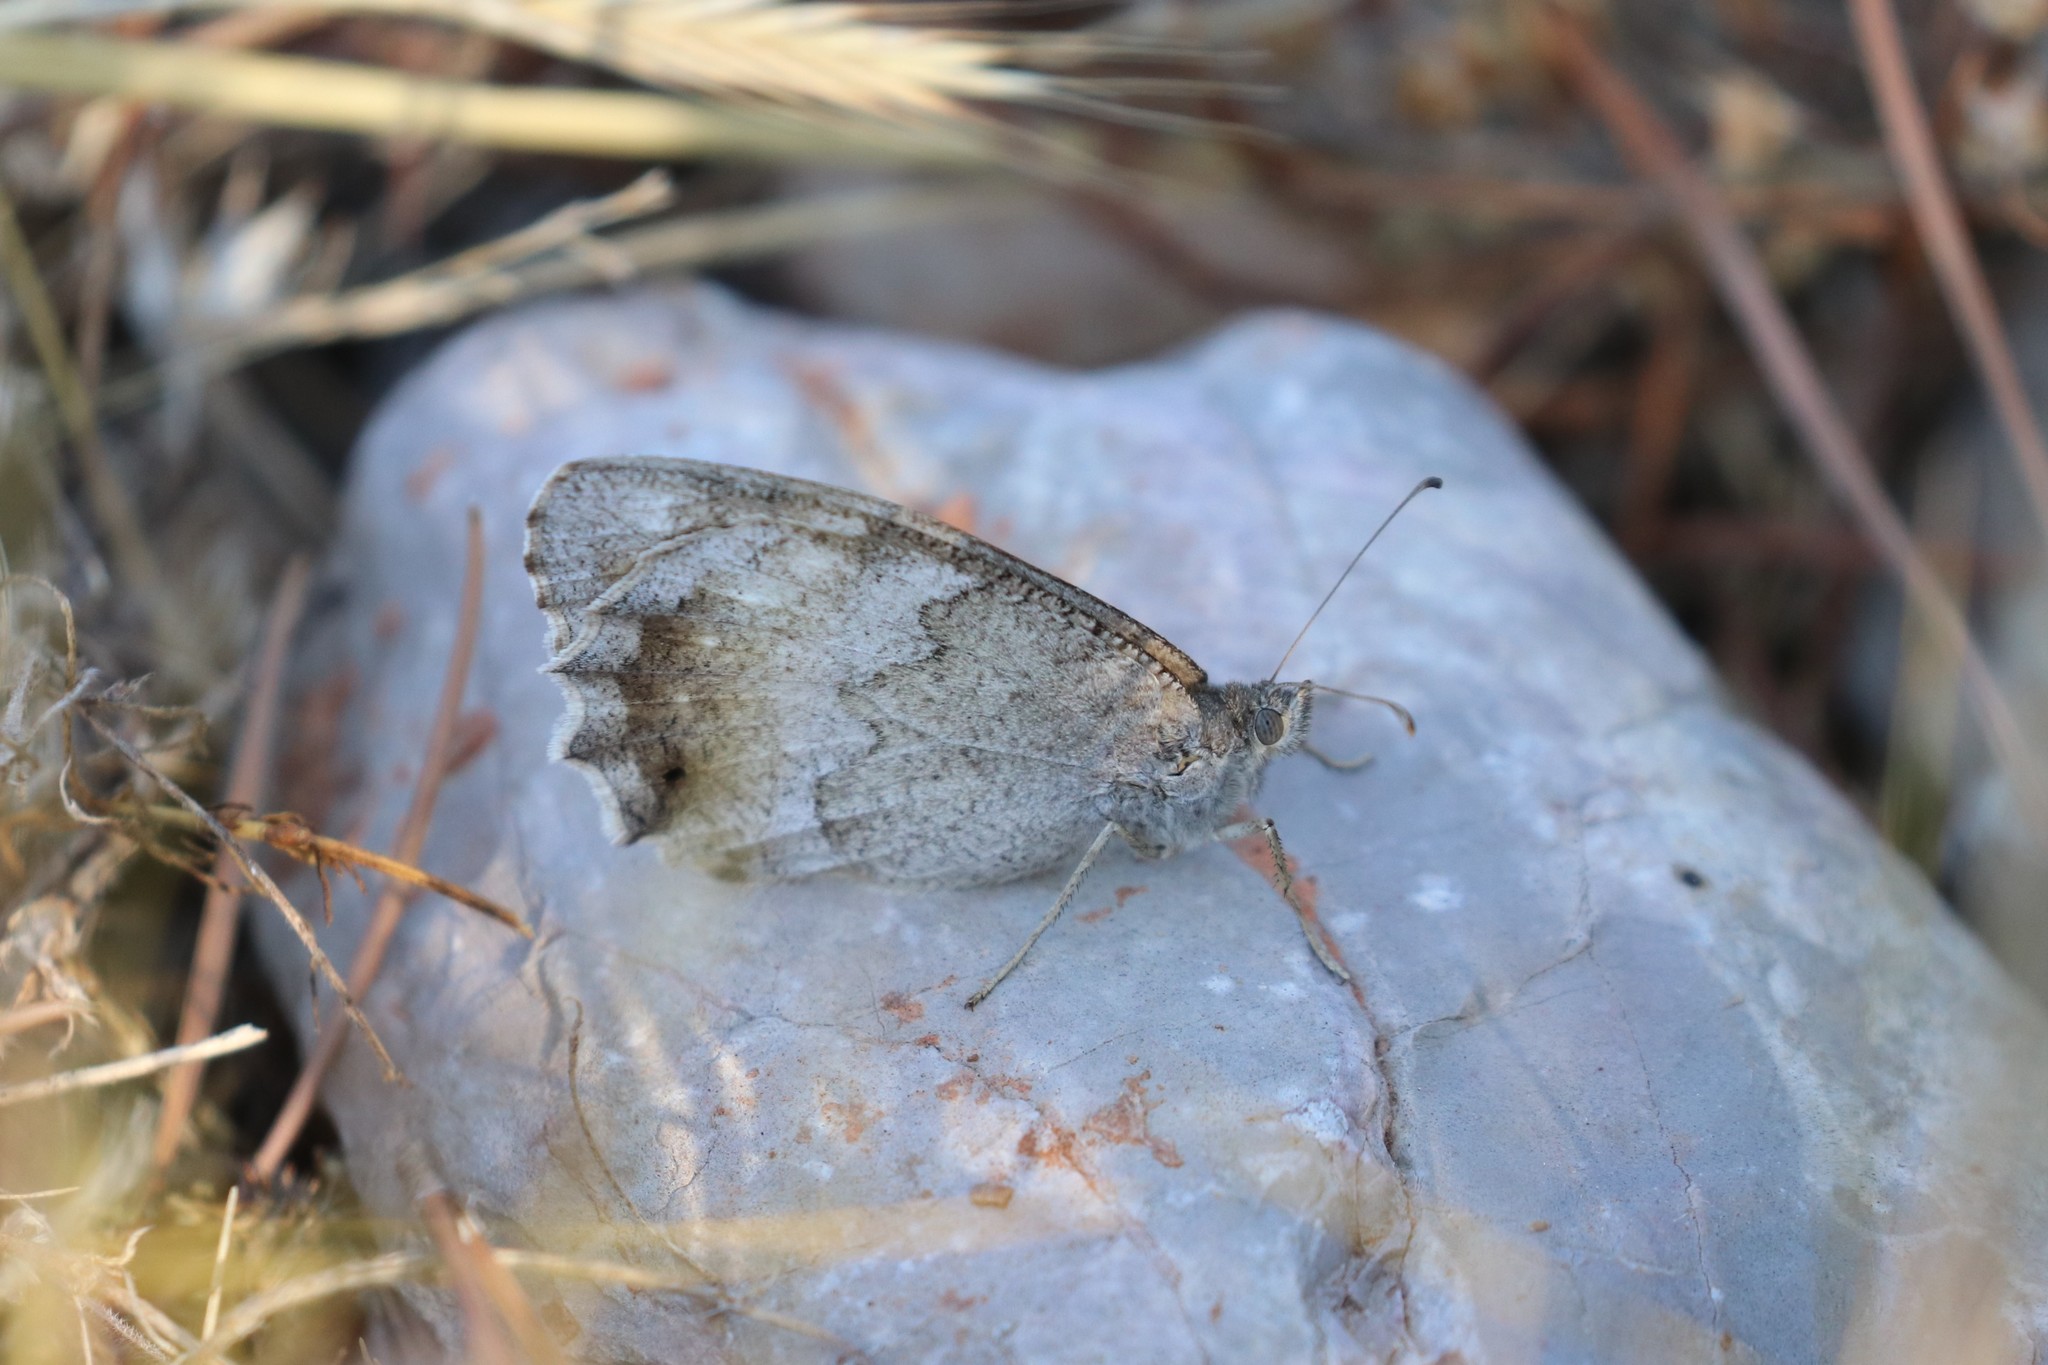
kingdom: Animalia
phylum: Arthropoda
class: Insecta
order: Lepidoptera
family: Nymphalidae
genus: Hipparchia
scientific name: Hipparchia statilinus
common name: Tree grayling
